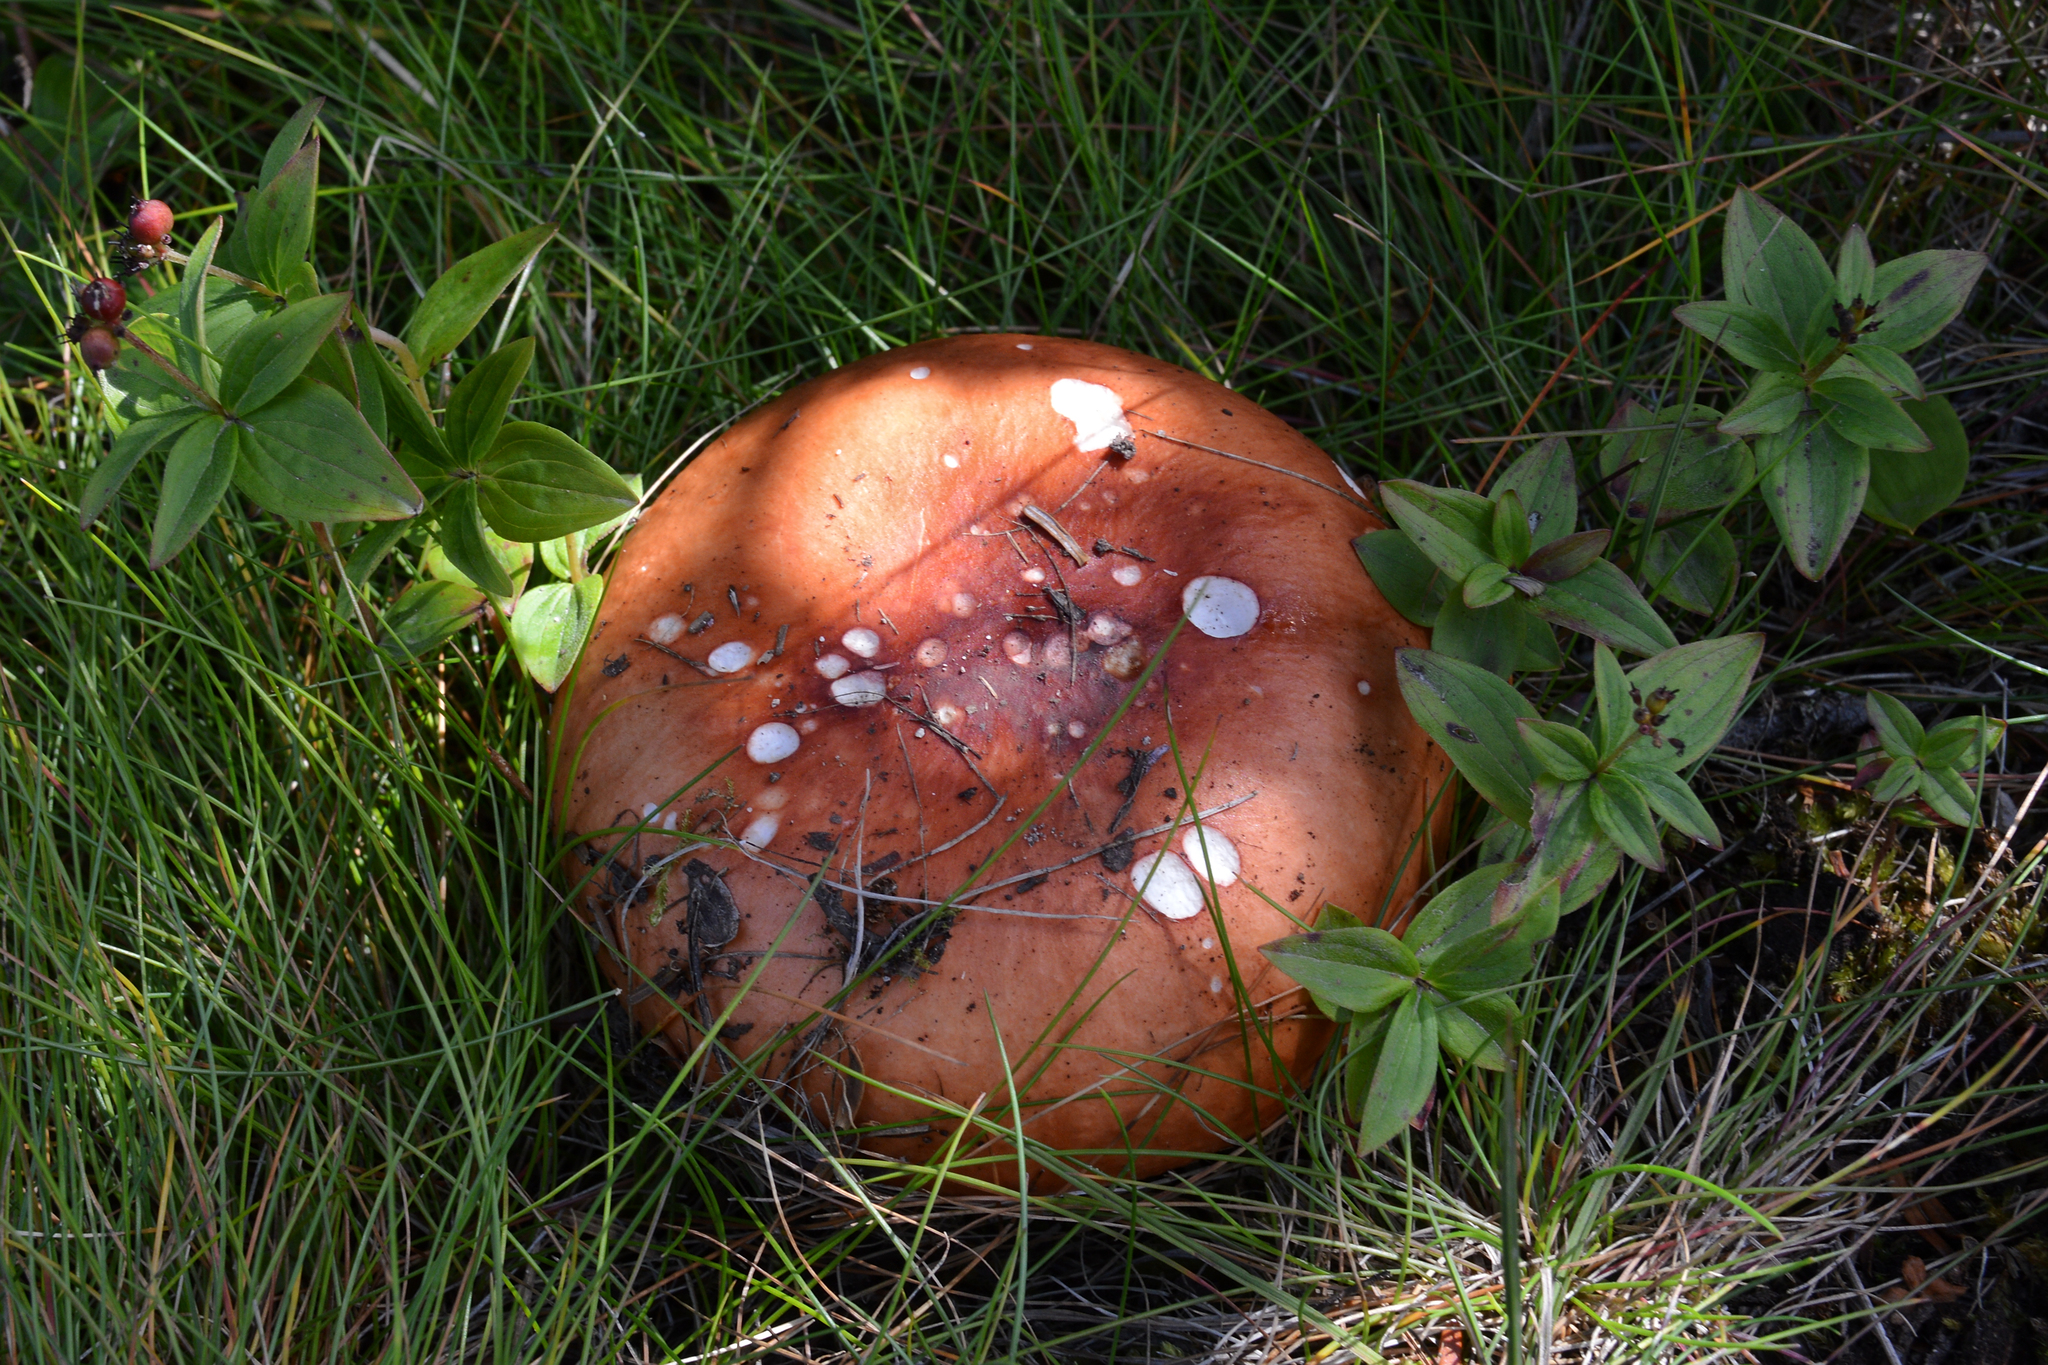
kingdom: Plantae
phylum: Tracheophyta
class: Magnoliopsida
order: Cornales
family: Cornaceae
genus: Cornus
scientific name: Cornus suecica
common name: Dwarf cornel
